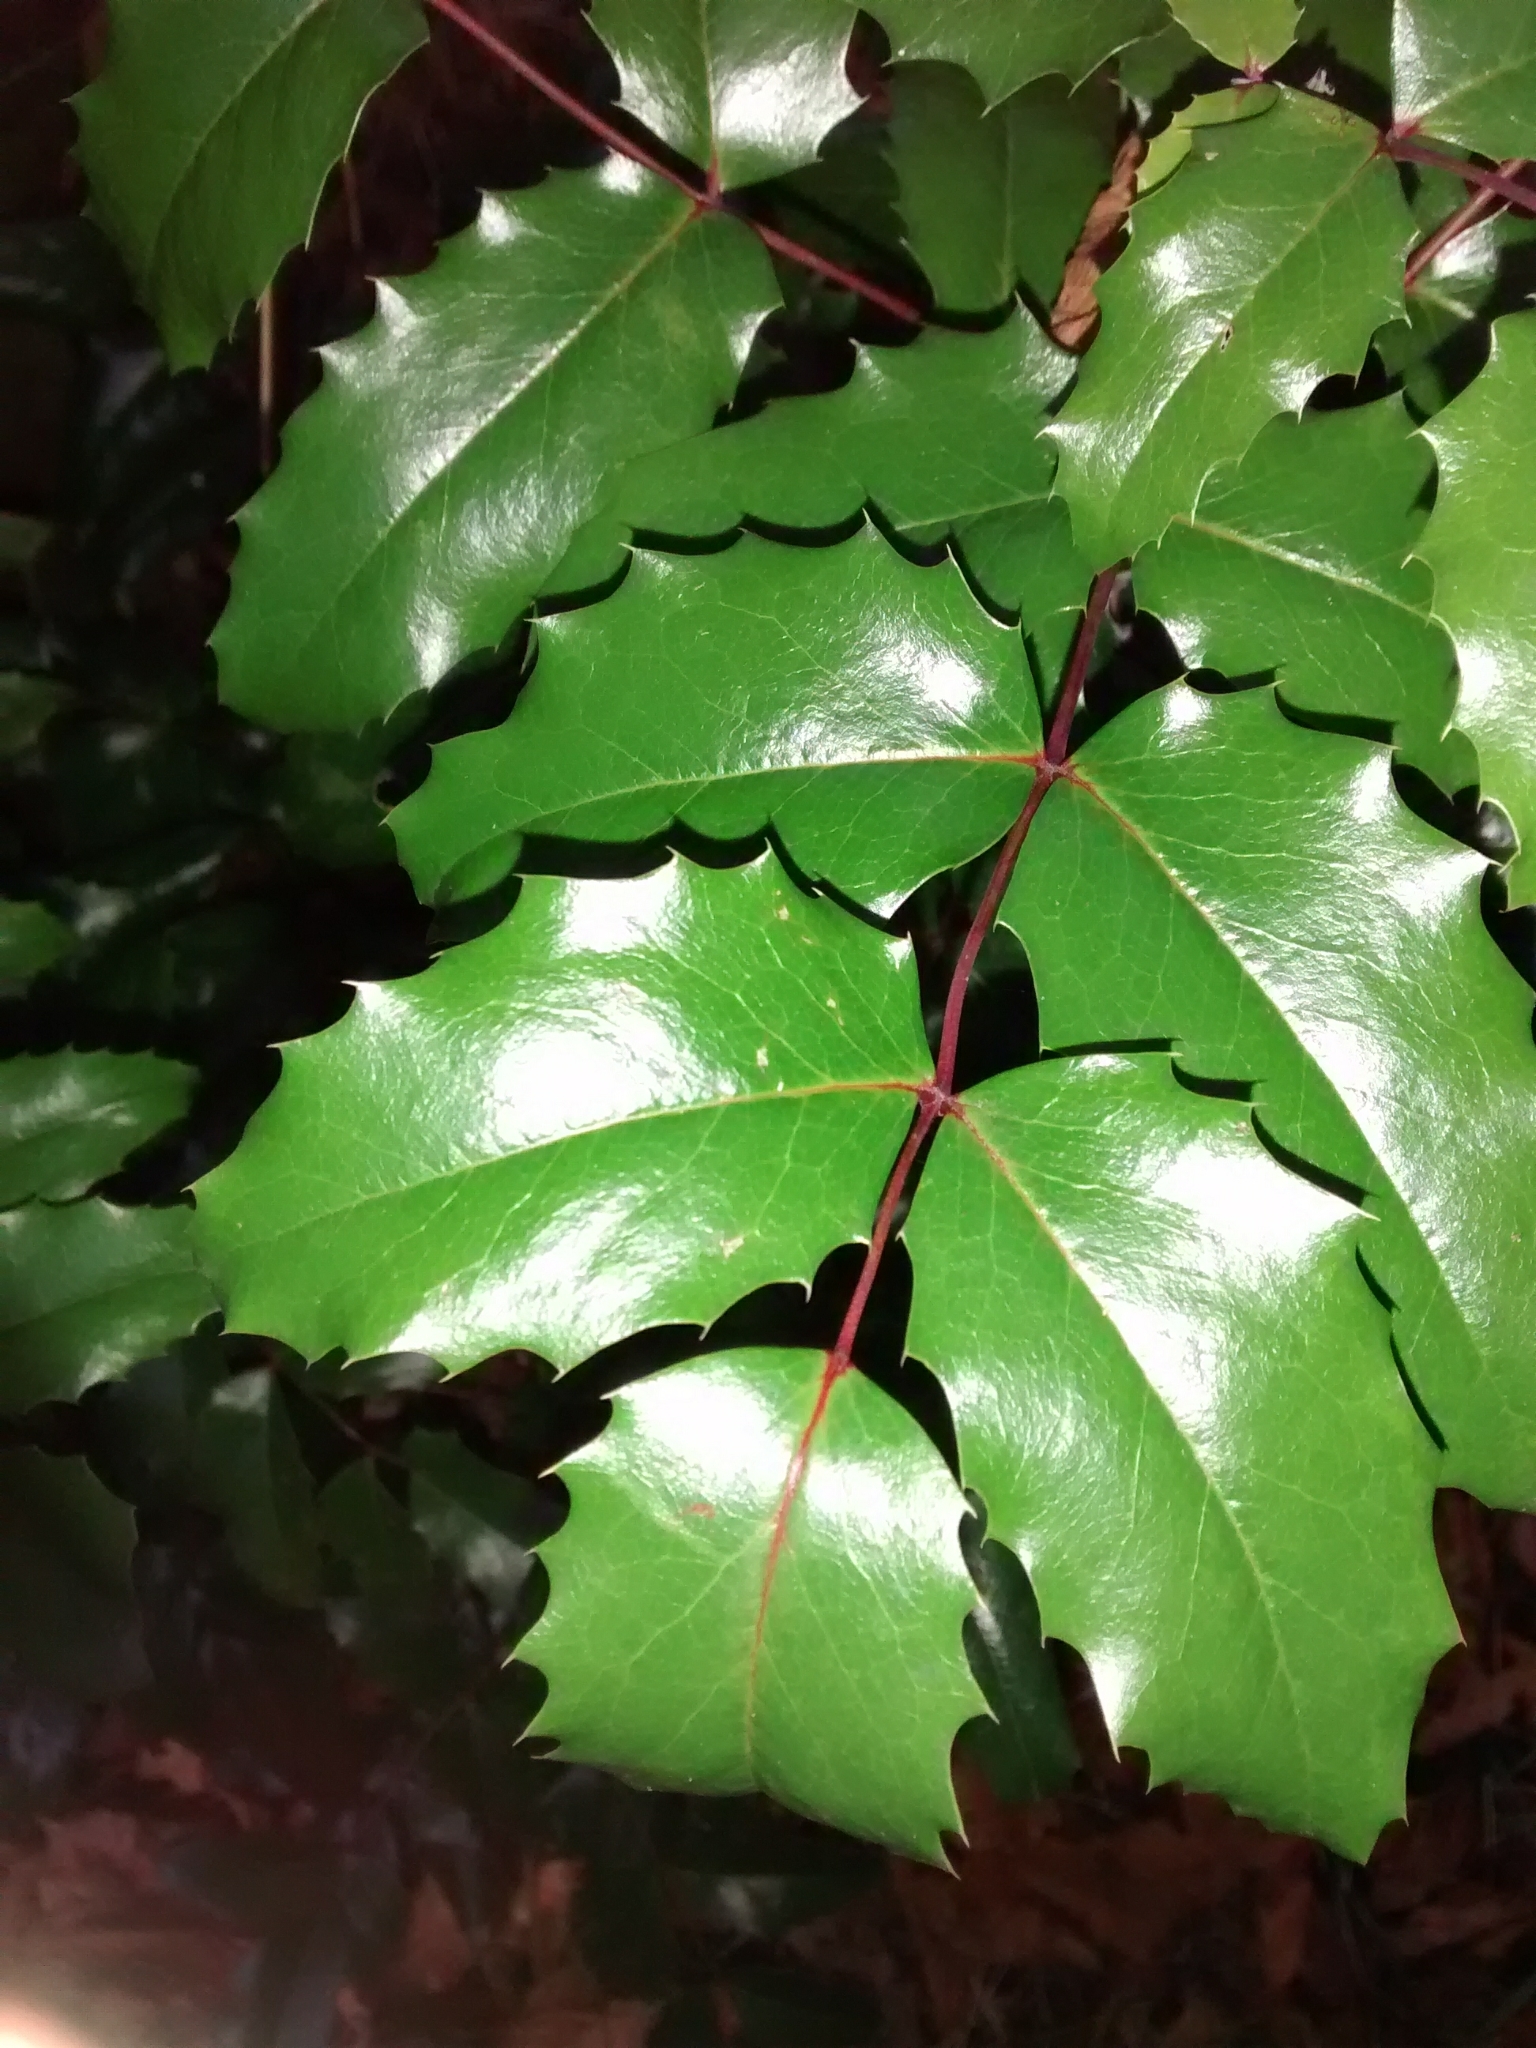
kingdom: Plantae
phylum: Tracheophyta
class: Magnoliopsida
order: Ranunculales
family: Berberidaceae
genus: Mahonia
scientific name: Mahonia aquifolium
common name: Oregon-grape
